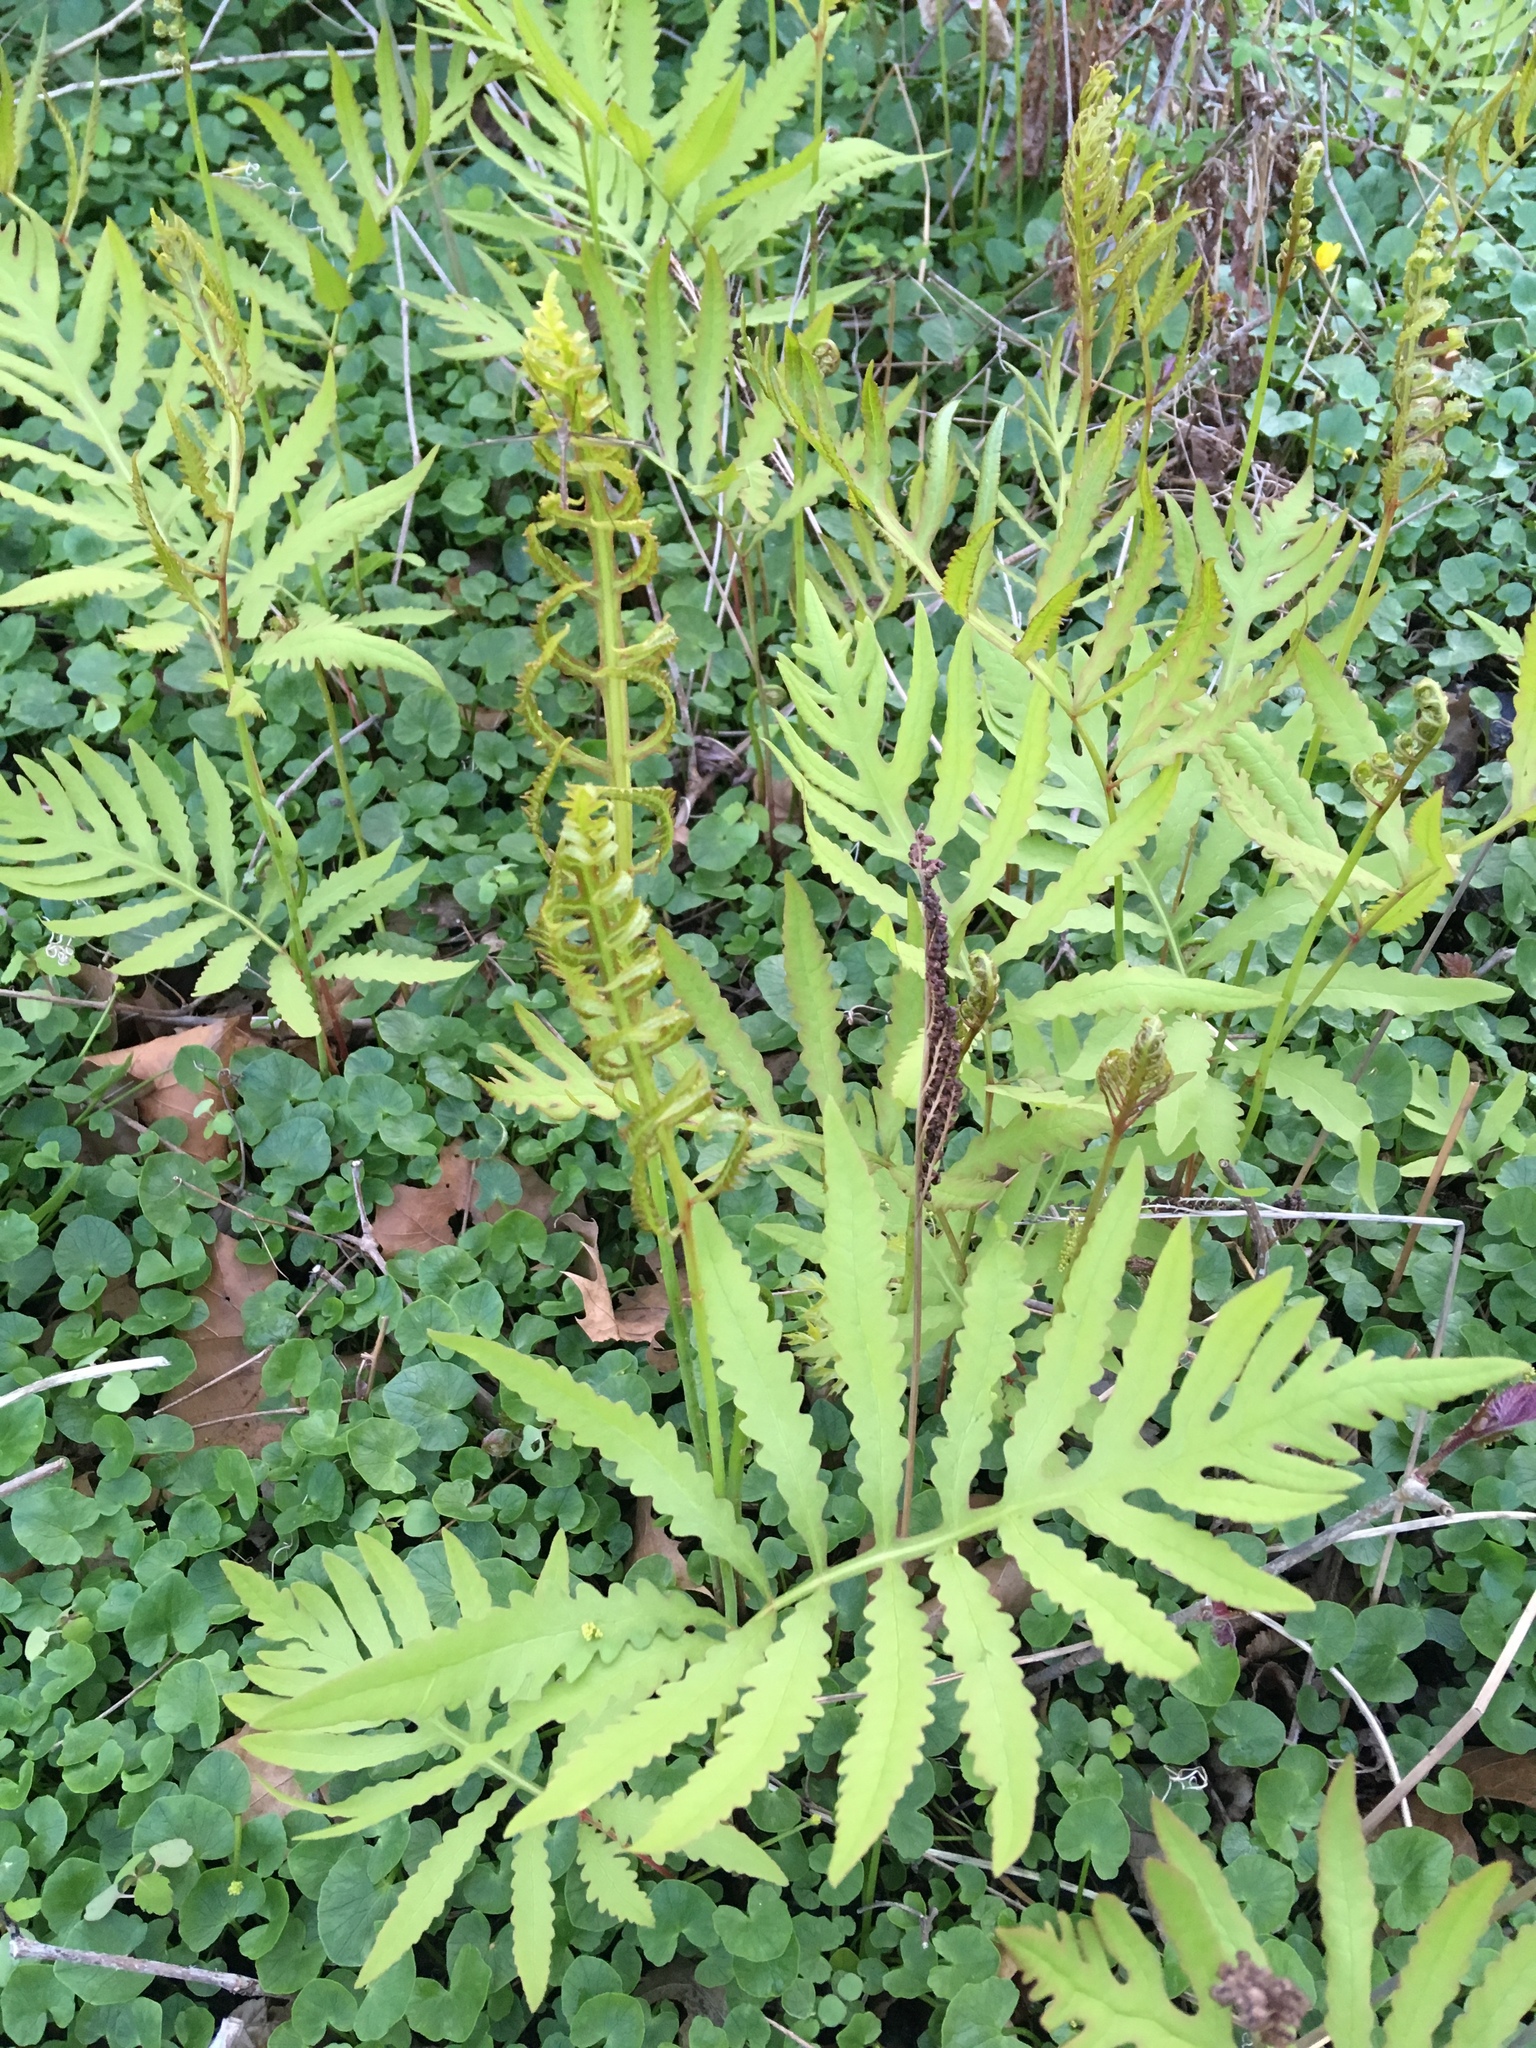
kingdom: Plantae
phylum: Tracheophyta
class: Polypodiopsida
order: Polypodiales
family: Onocleaceae
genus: Onoclea
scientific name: Onoclea sensibilis
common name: Sensitive fern
